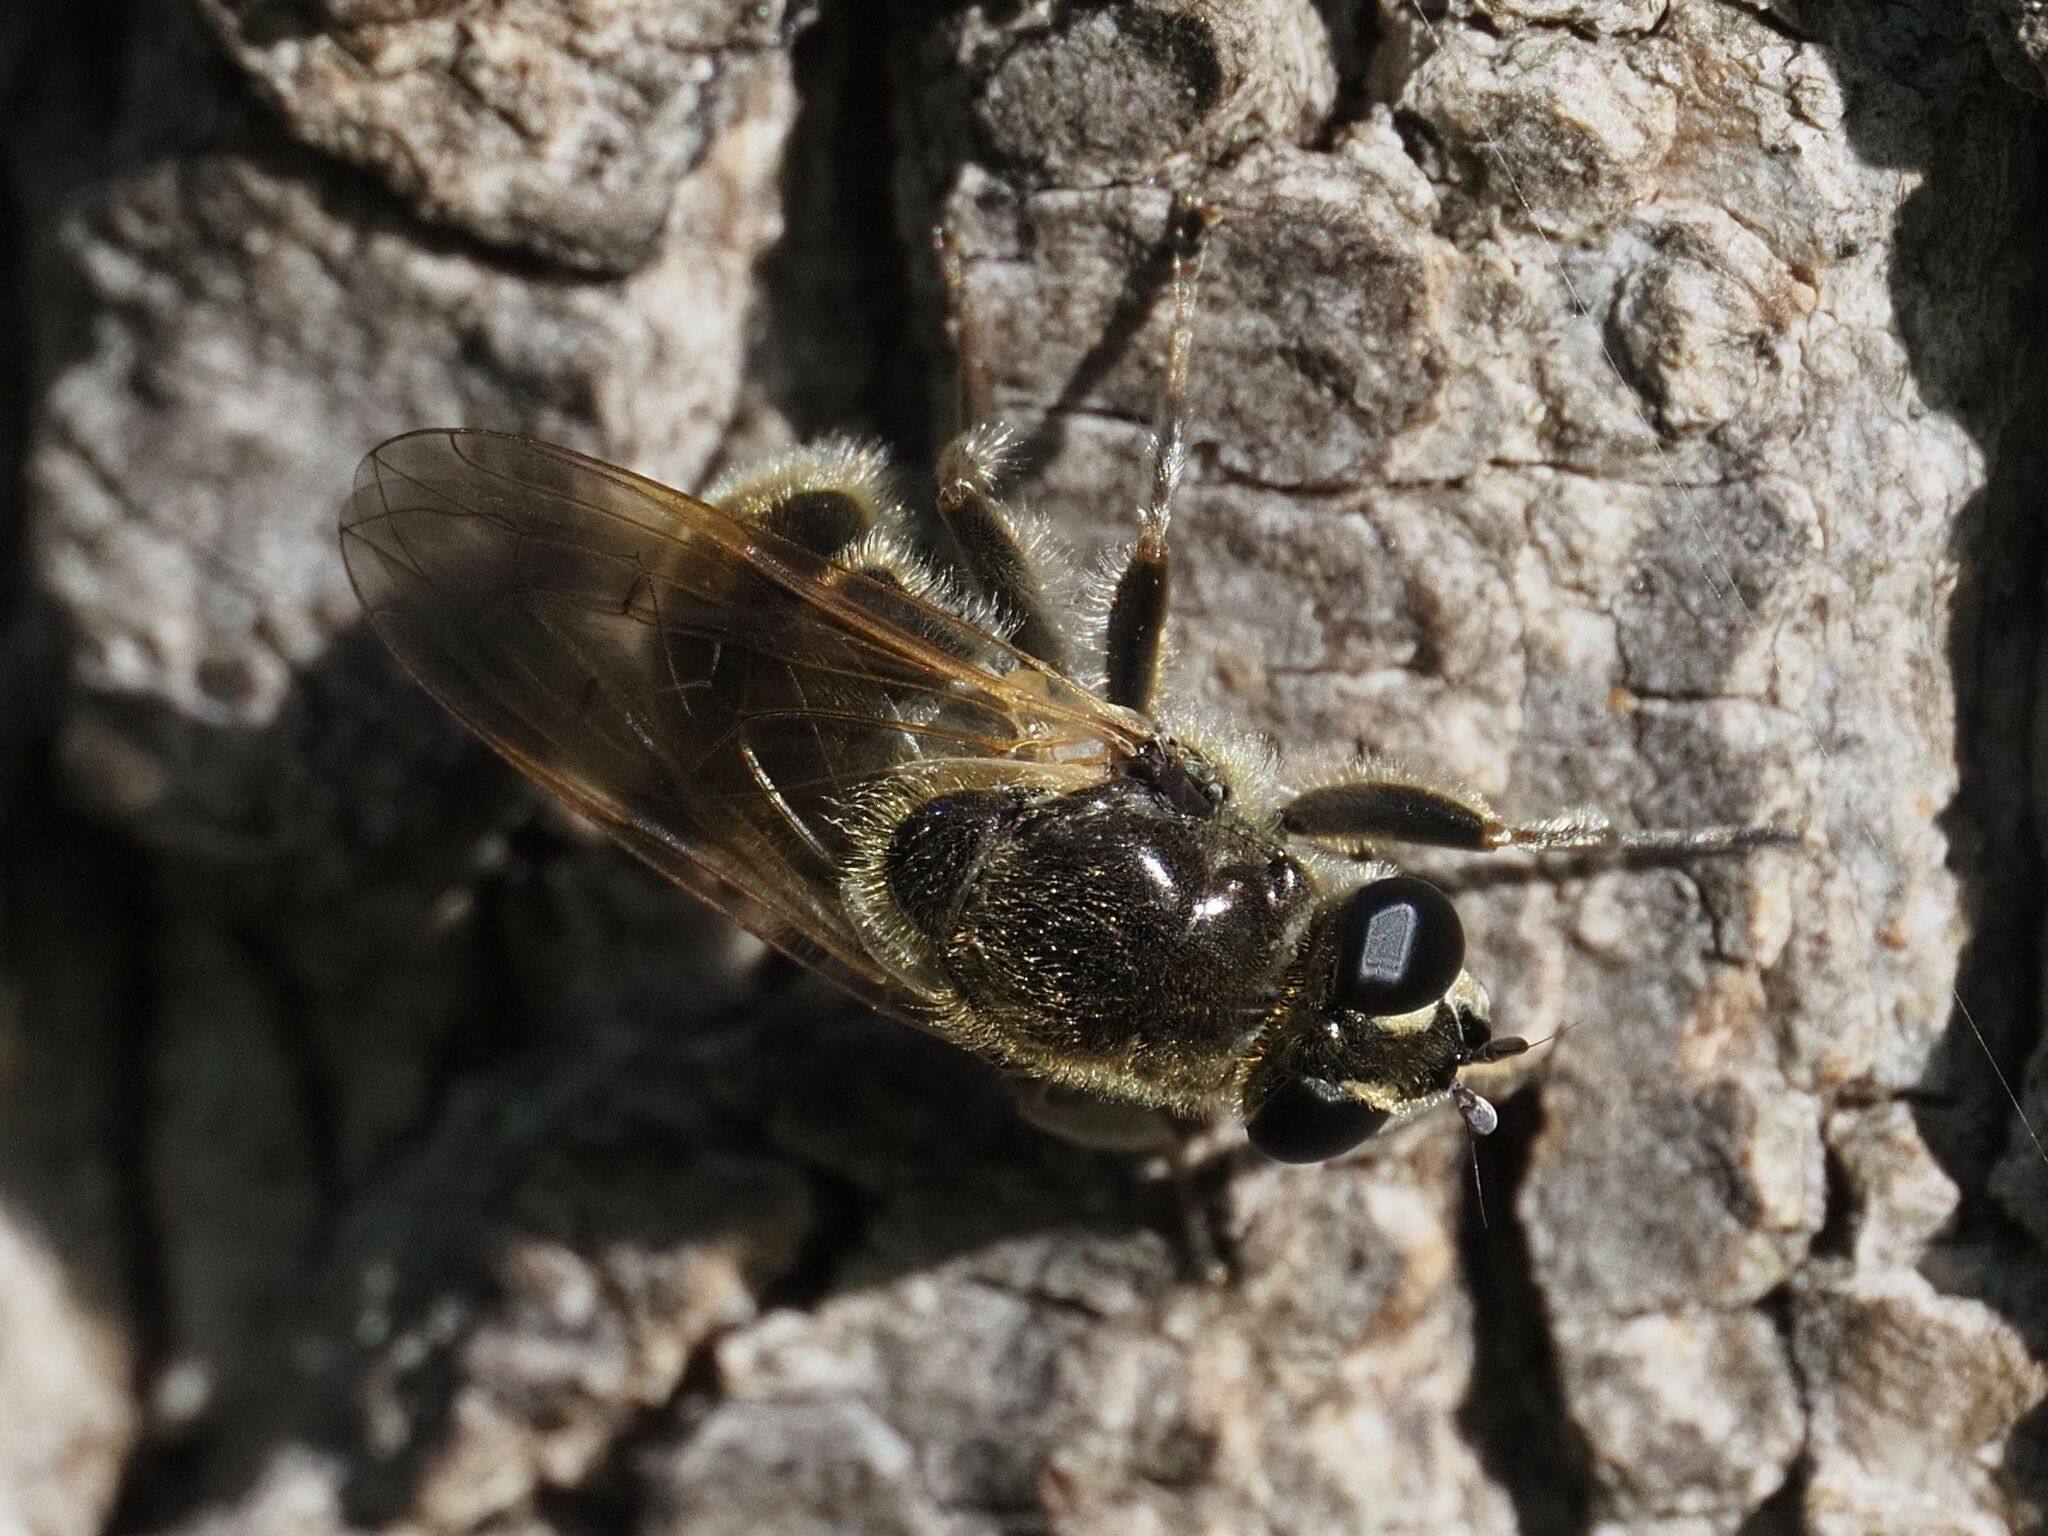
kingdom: Animalia
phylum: Arthropoda
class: Insecta
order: Diptera
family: Syrphidae
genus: Myolepta
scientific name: Myolepta obscura
